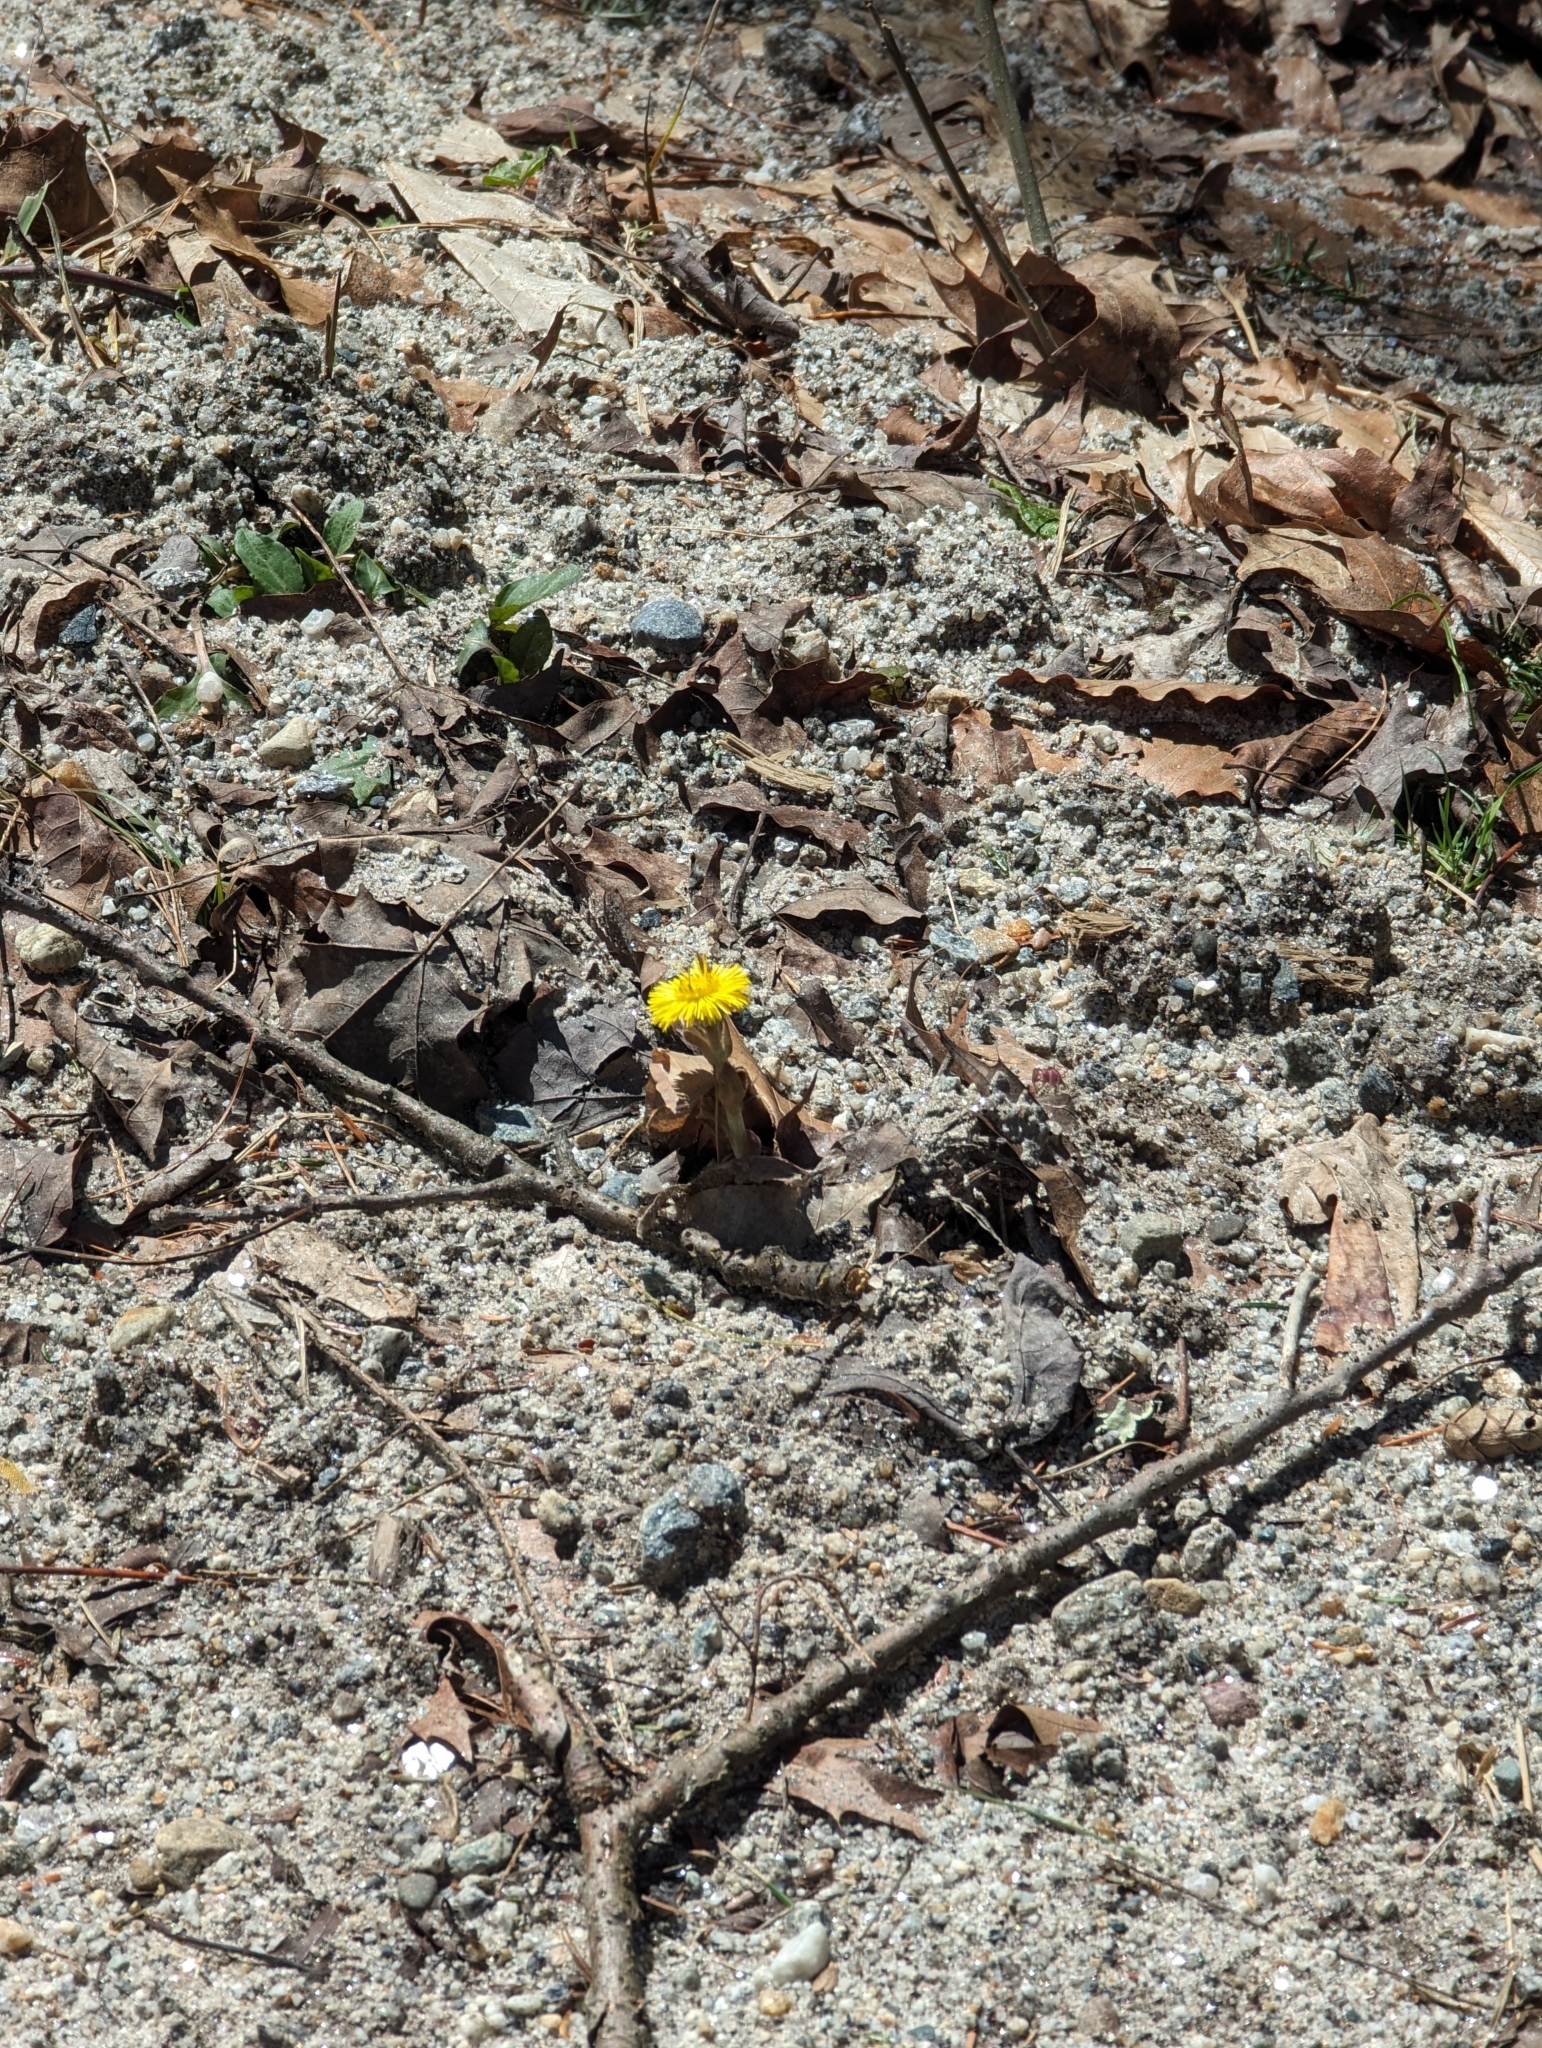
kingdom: Plantae
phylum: Tracheophyta
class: Magnoliopsida
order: Asterales
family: Asteraceae
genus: Tussilago
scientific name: Tussilago farfara
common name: Coltsfoot
